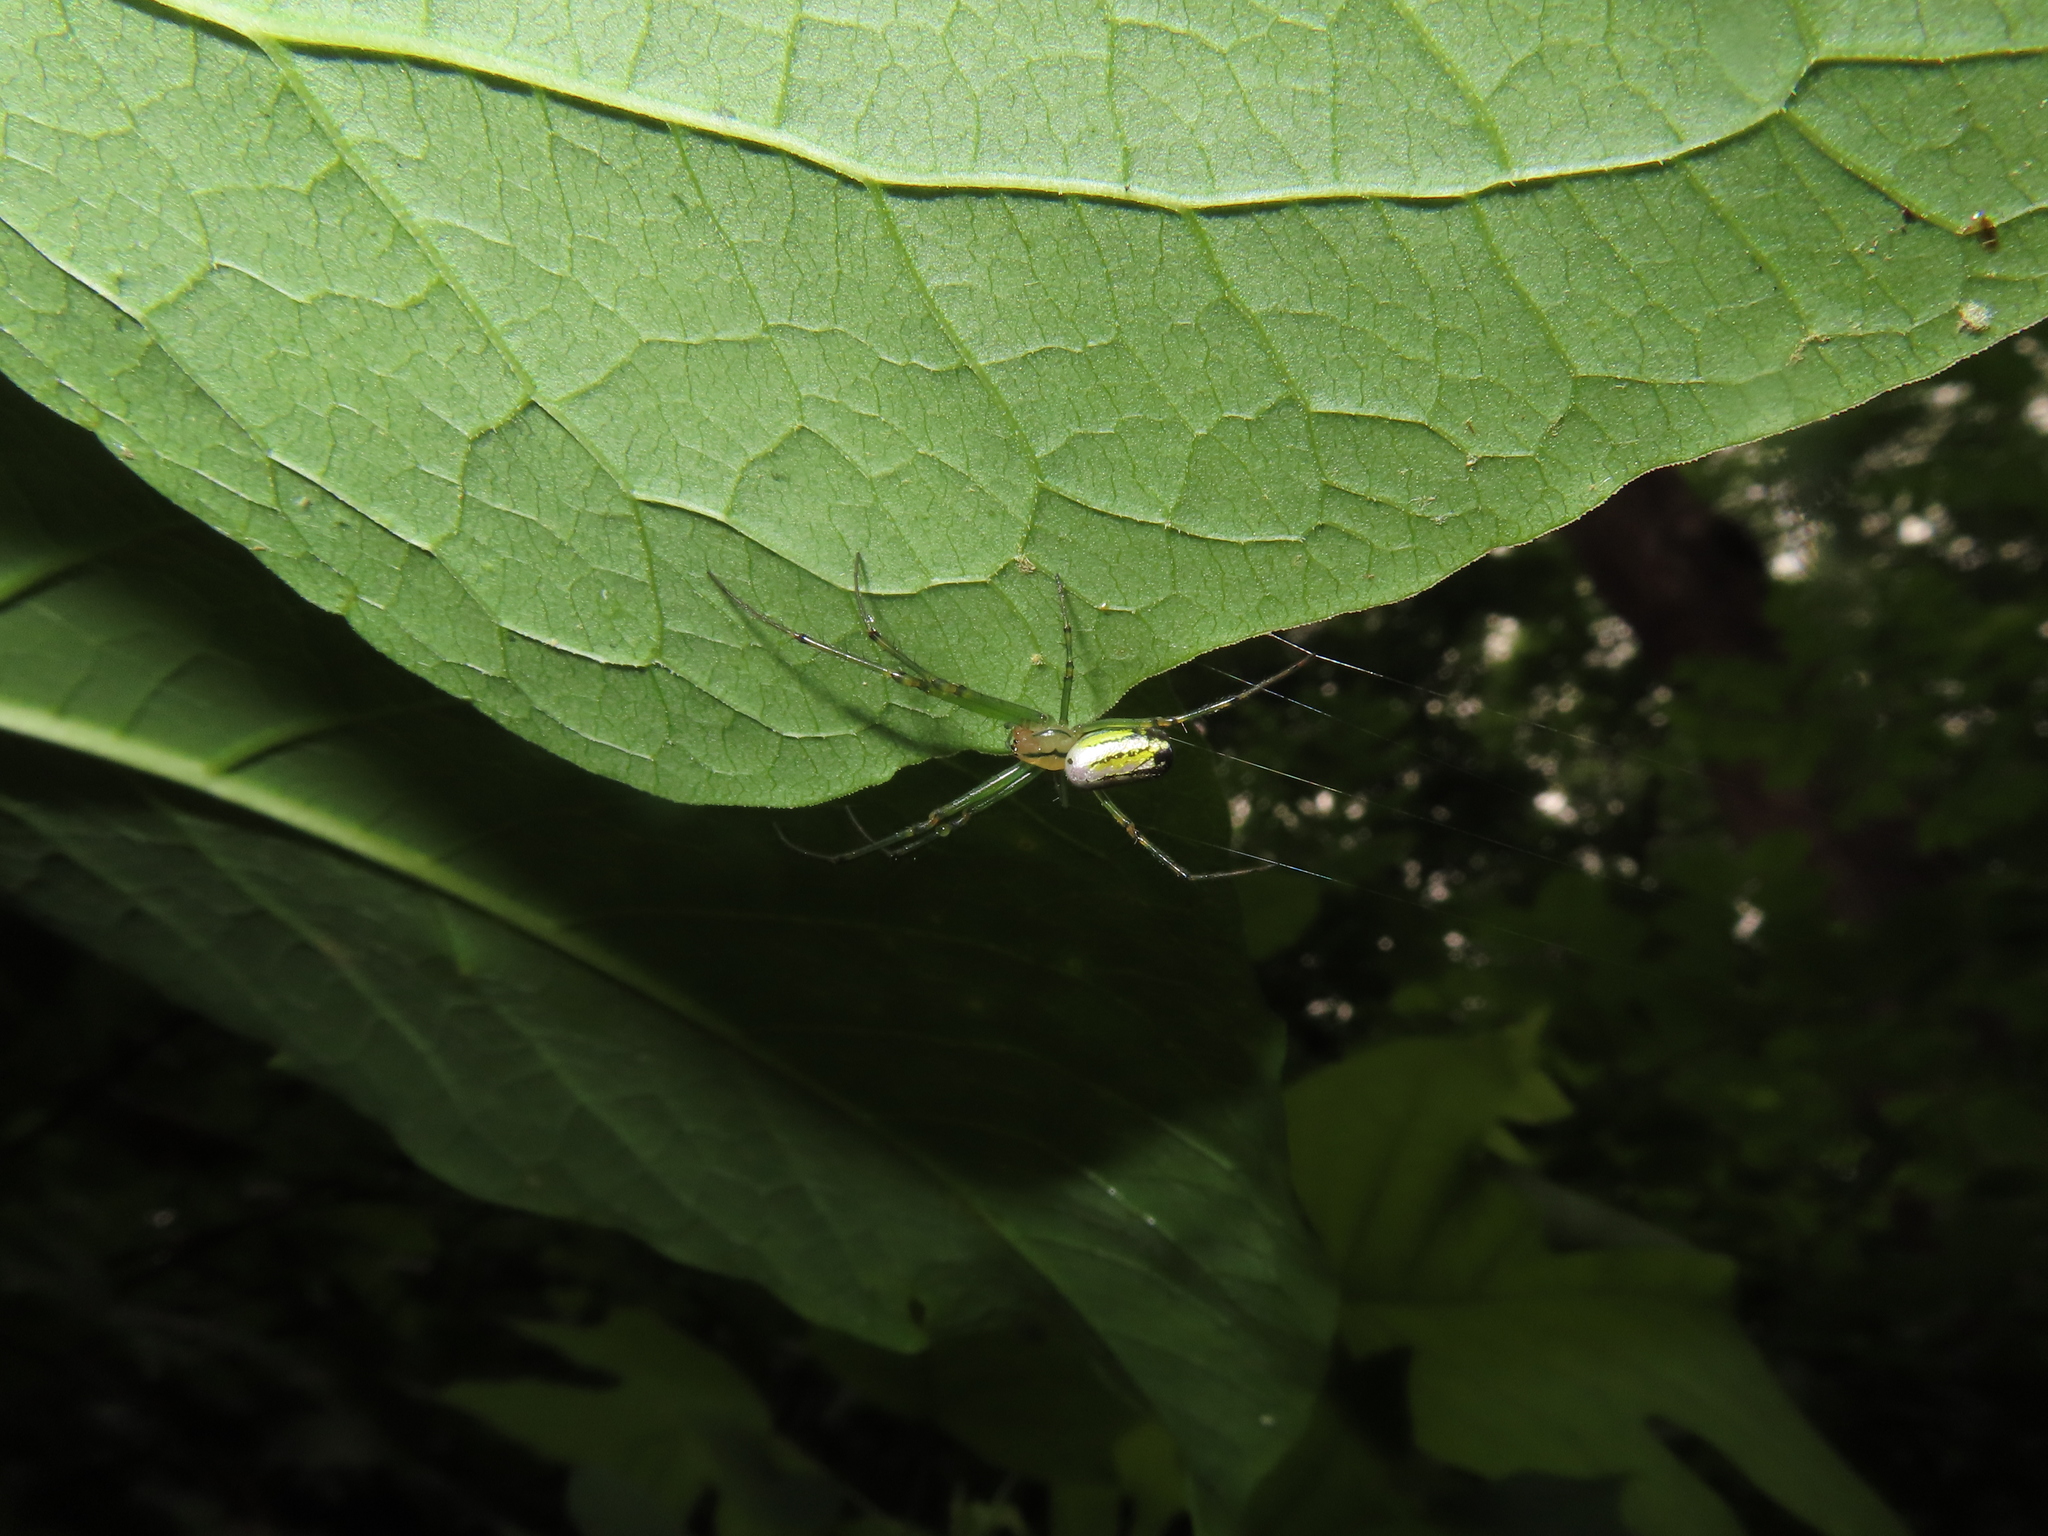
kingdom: Animalia
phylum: Arthropoda
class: Arachnida
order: Araneae
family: Tetragnathidae
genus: Leucauge
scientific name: Leucauge venusta
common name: Longjawed orb weavers
